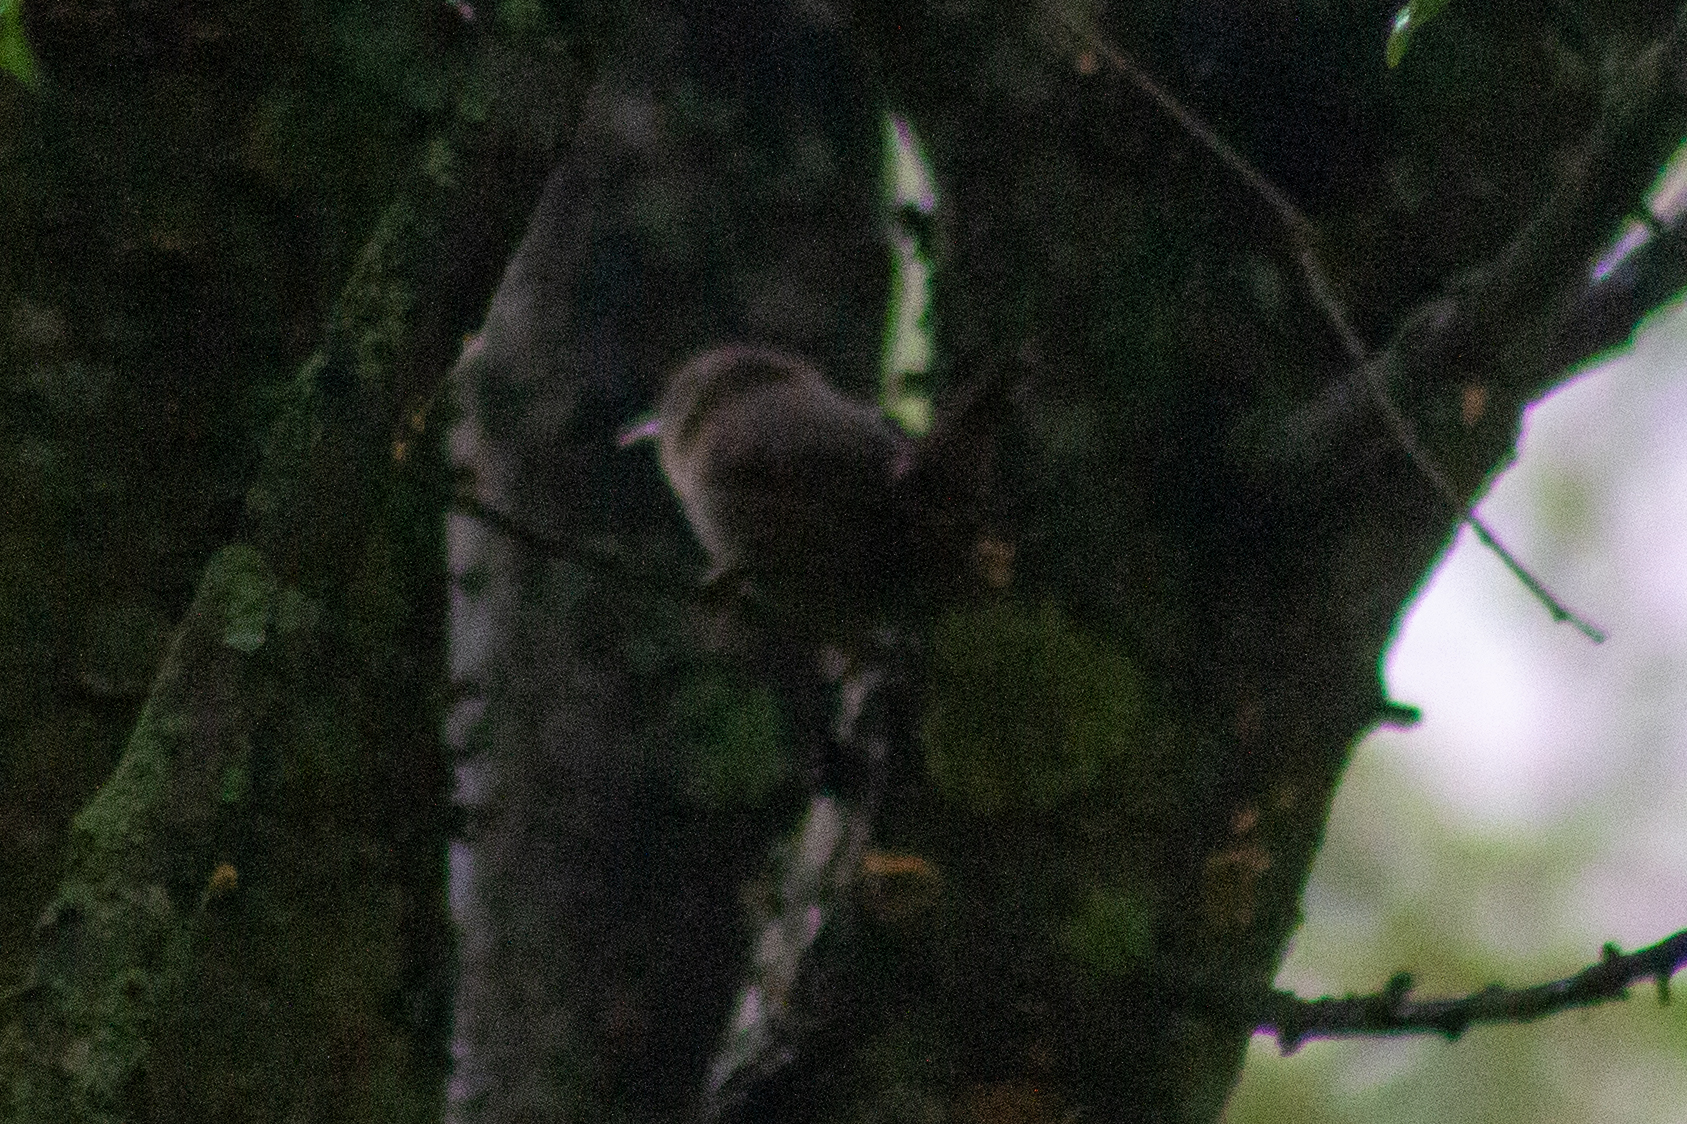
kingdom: Animalia
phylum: Chordata
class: Aves
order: Passeriformes
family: Troglodytidae
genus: Troglodytes
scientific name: Troglodytes troglodytes
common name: Eurasian wren
